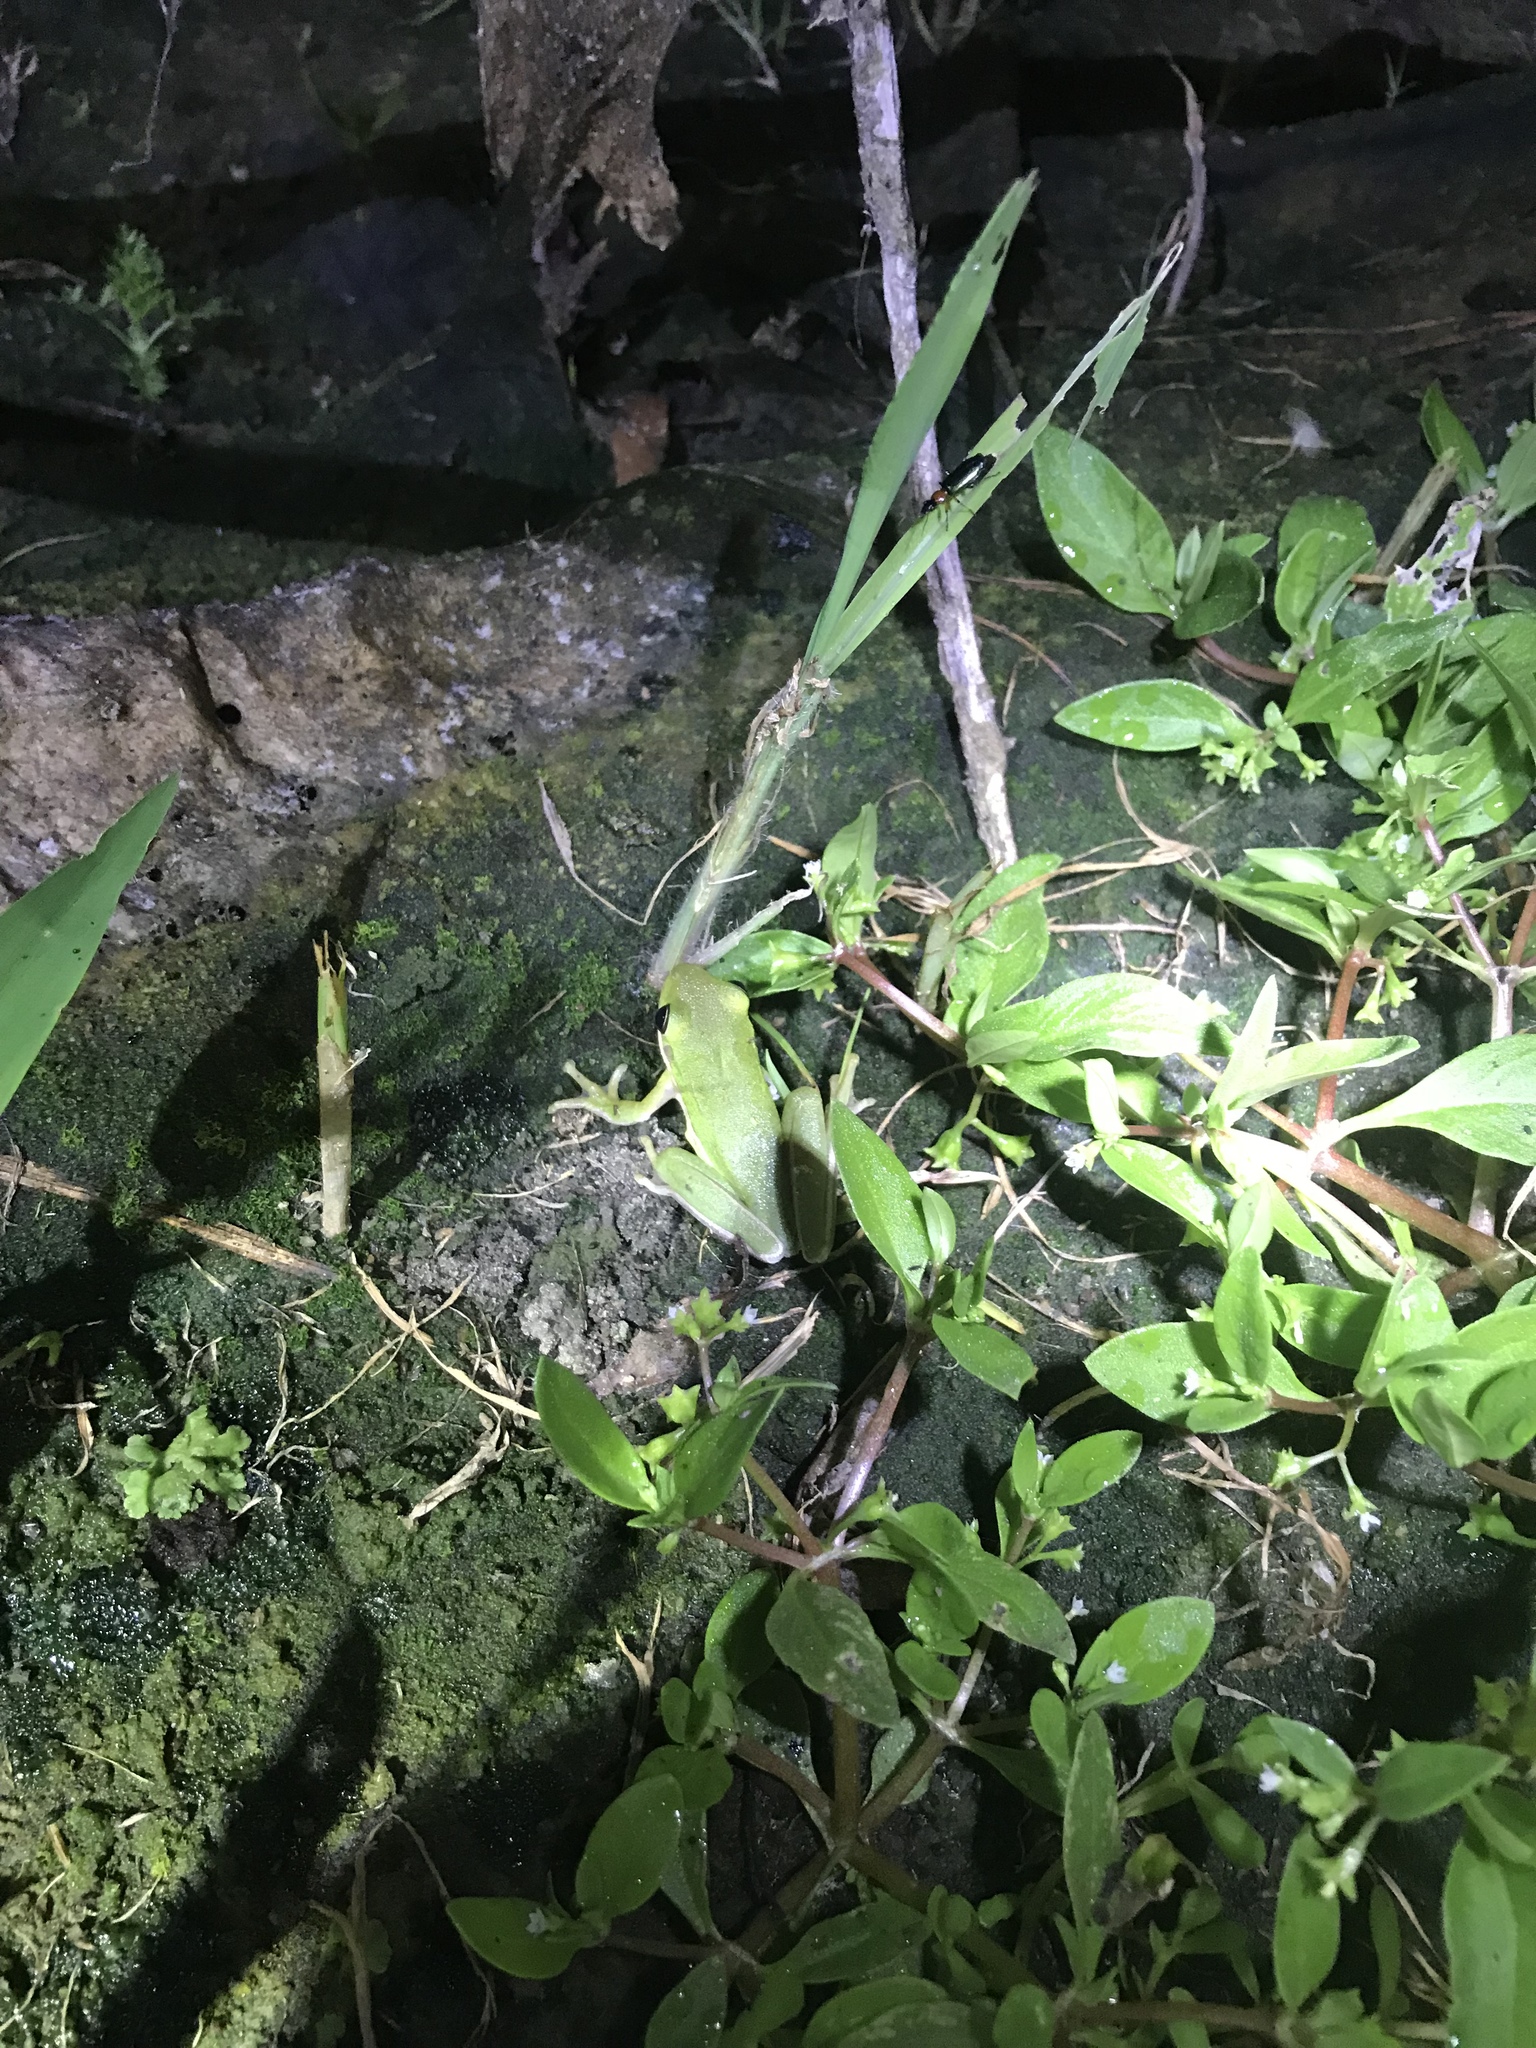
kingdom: Animalia
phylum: Chordata
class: Amphibia
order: Anura
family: Hylidae
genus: Dryophytes
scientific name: Dryophytes cinereus
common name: Green treefrog
